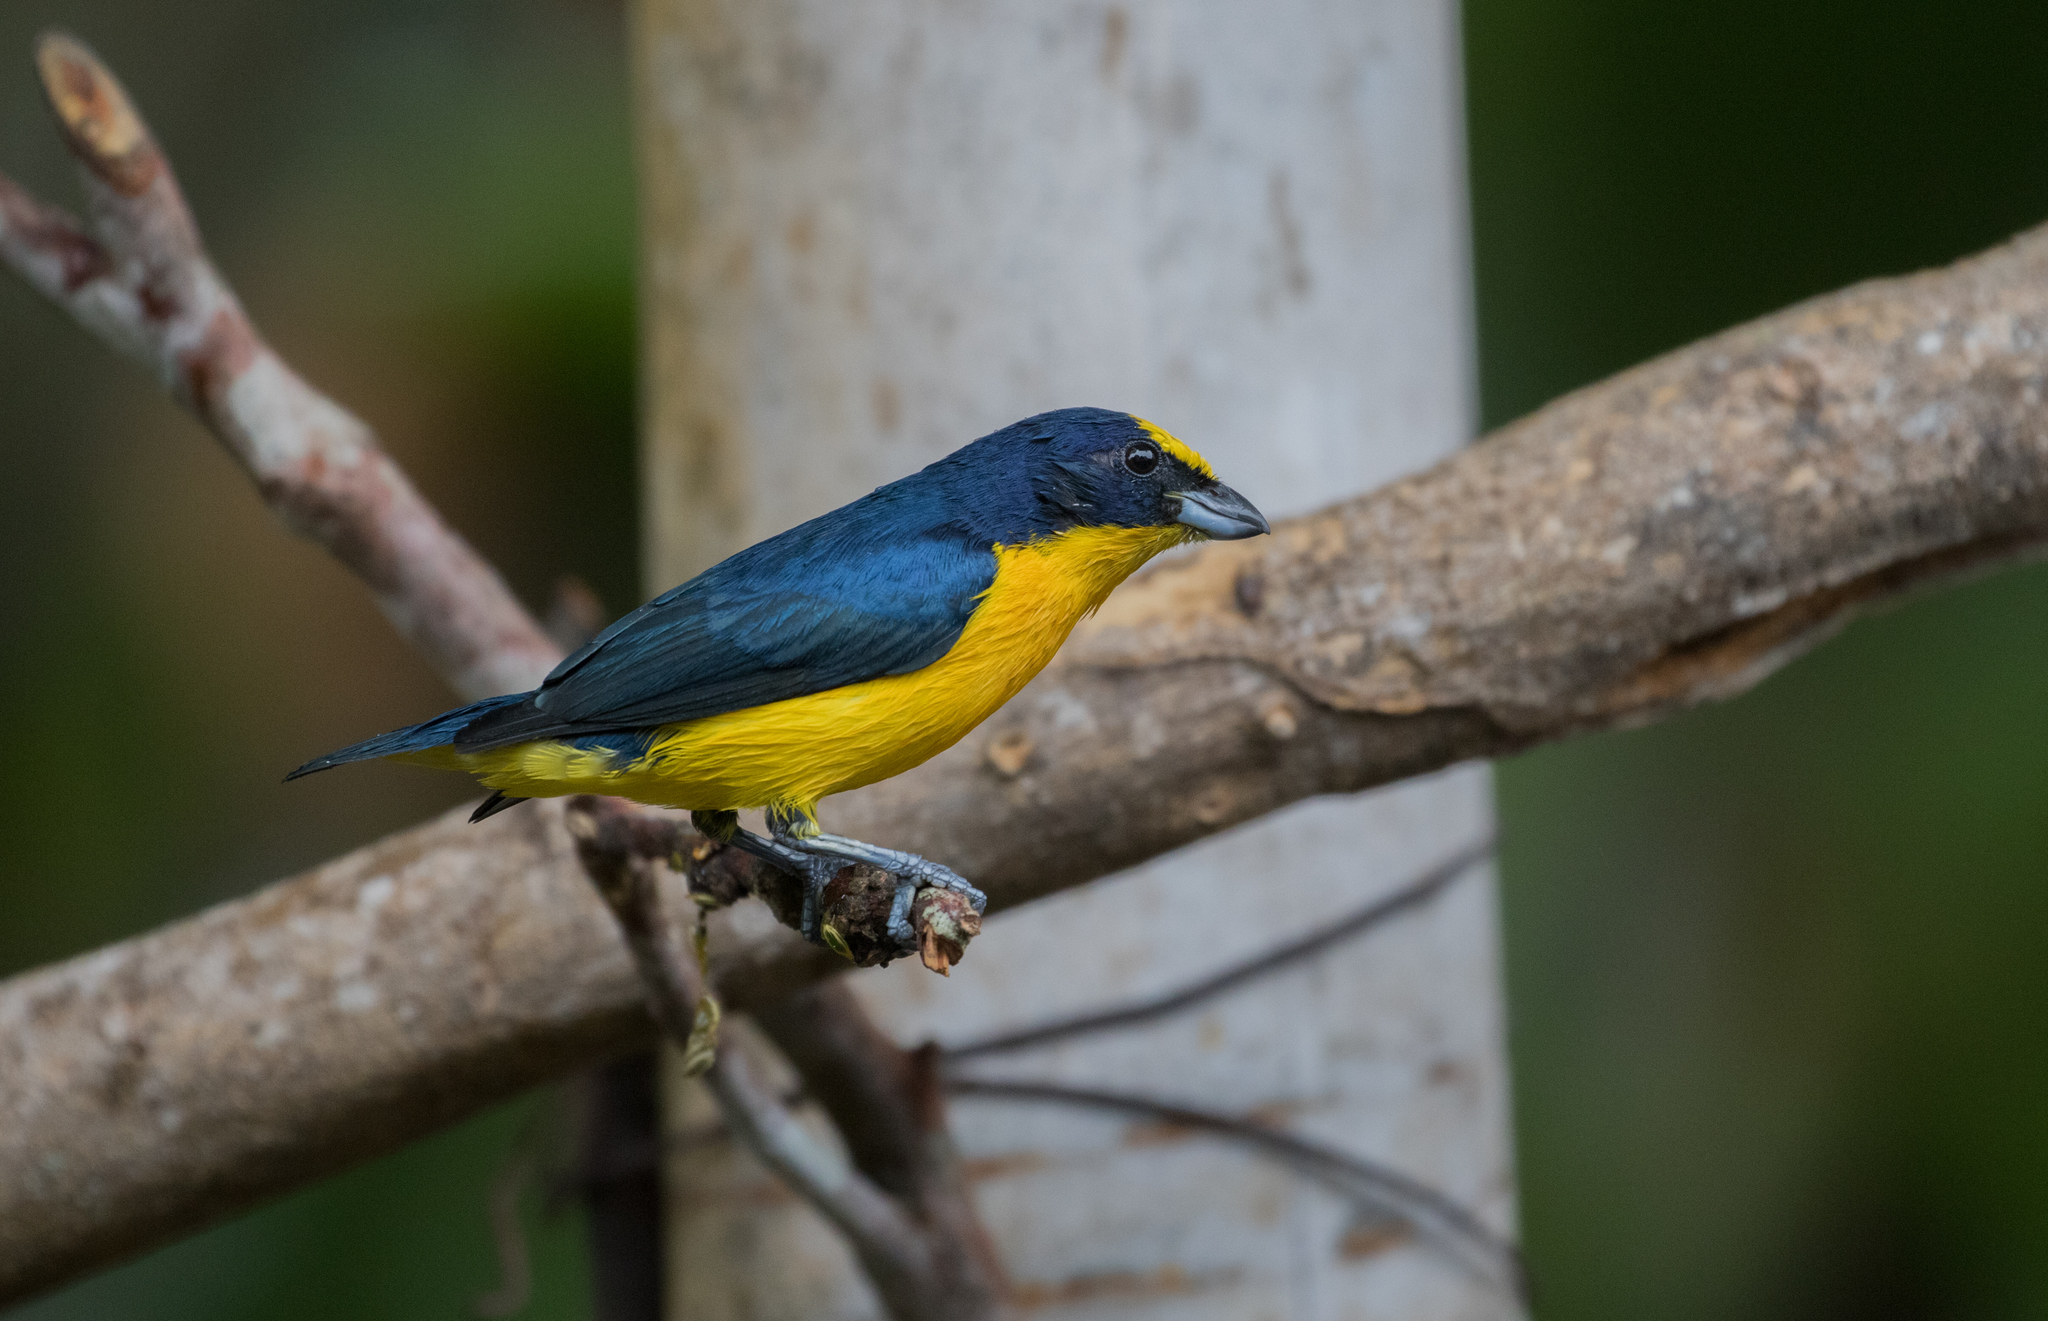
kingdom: Animalia
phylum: Chordata
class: Aves
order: Passeriformes
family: Fringillidae
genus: Euphonia
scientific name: Euphonia laniirostris
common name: Thick-billed euphonia
